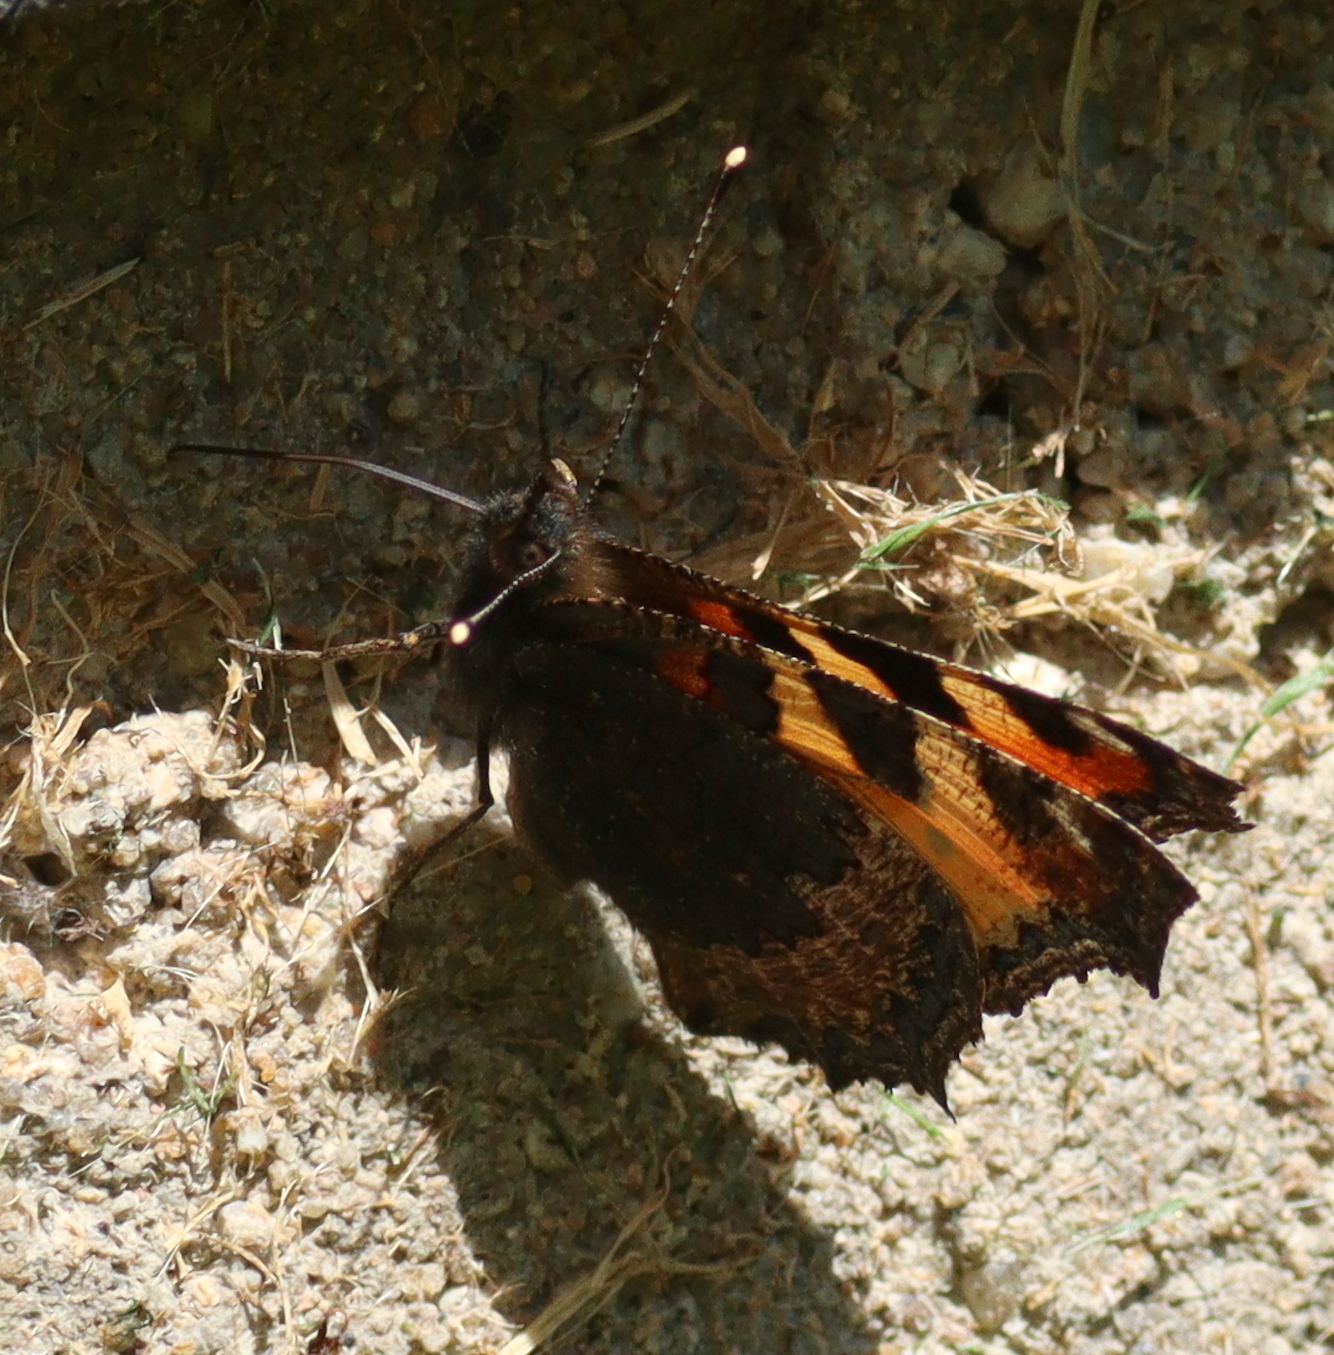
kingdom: Animalia
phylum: Arthropoda
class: Insecta
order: Lepidoptera
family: Nymphalidae
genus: Aglais
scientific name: Aglais urticae
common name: Small tortoiseshell
